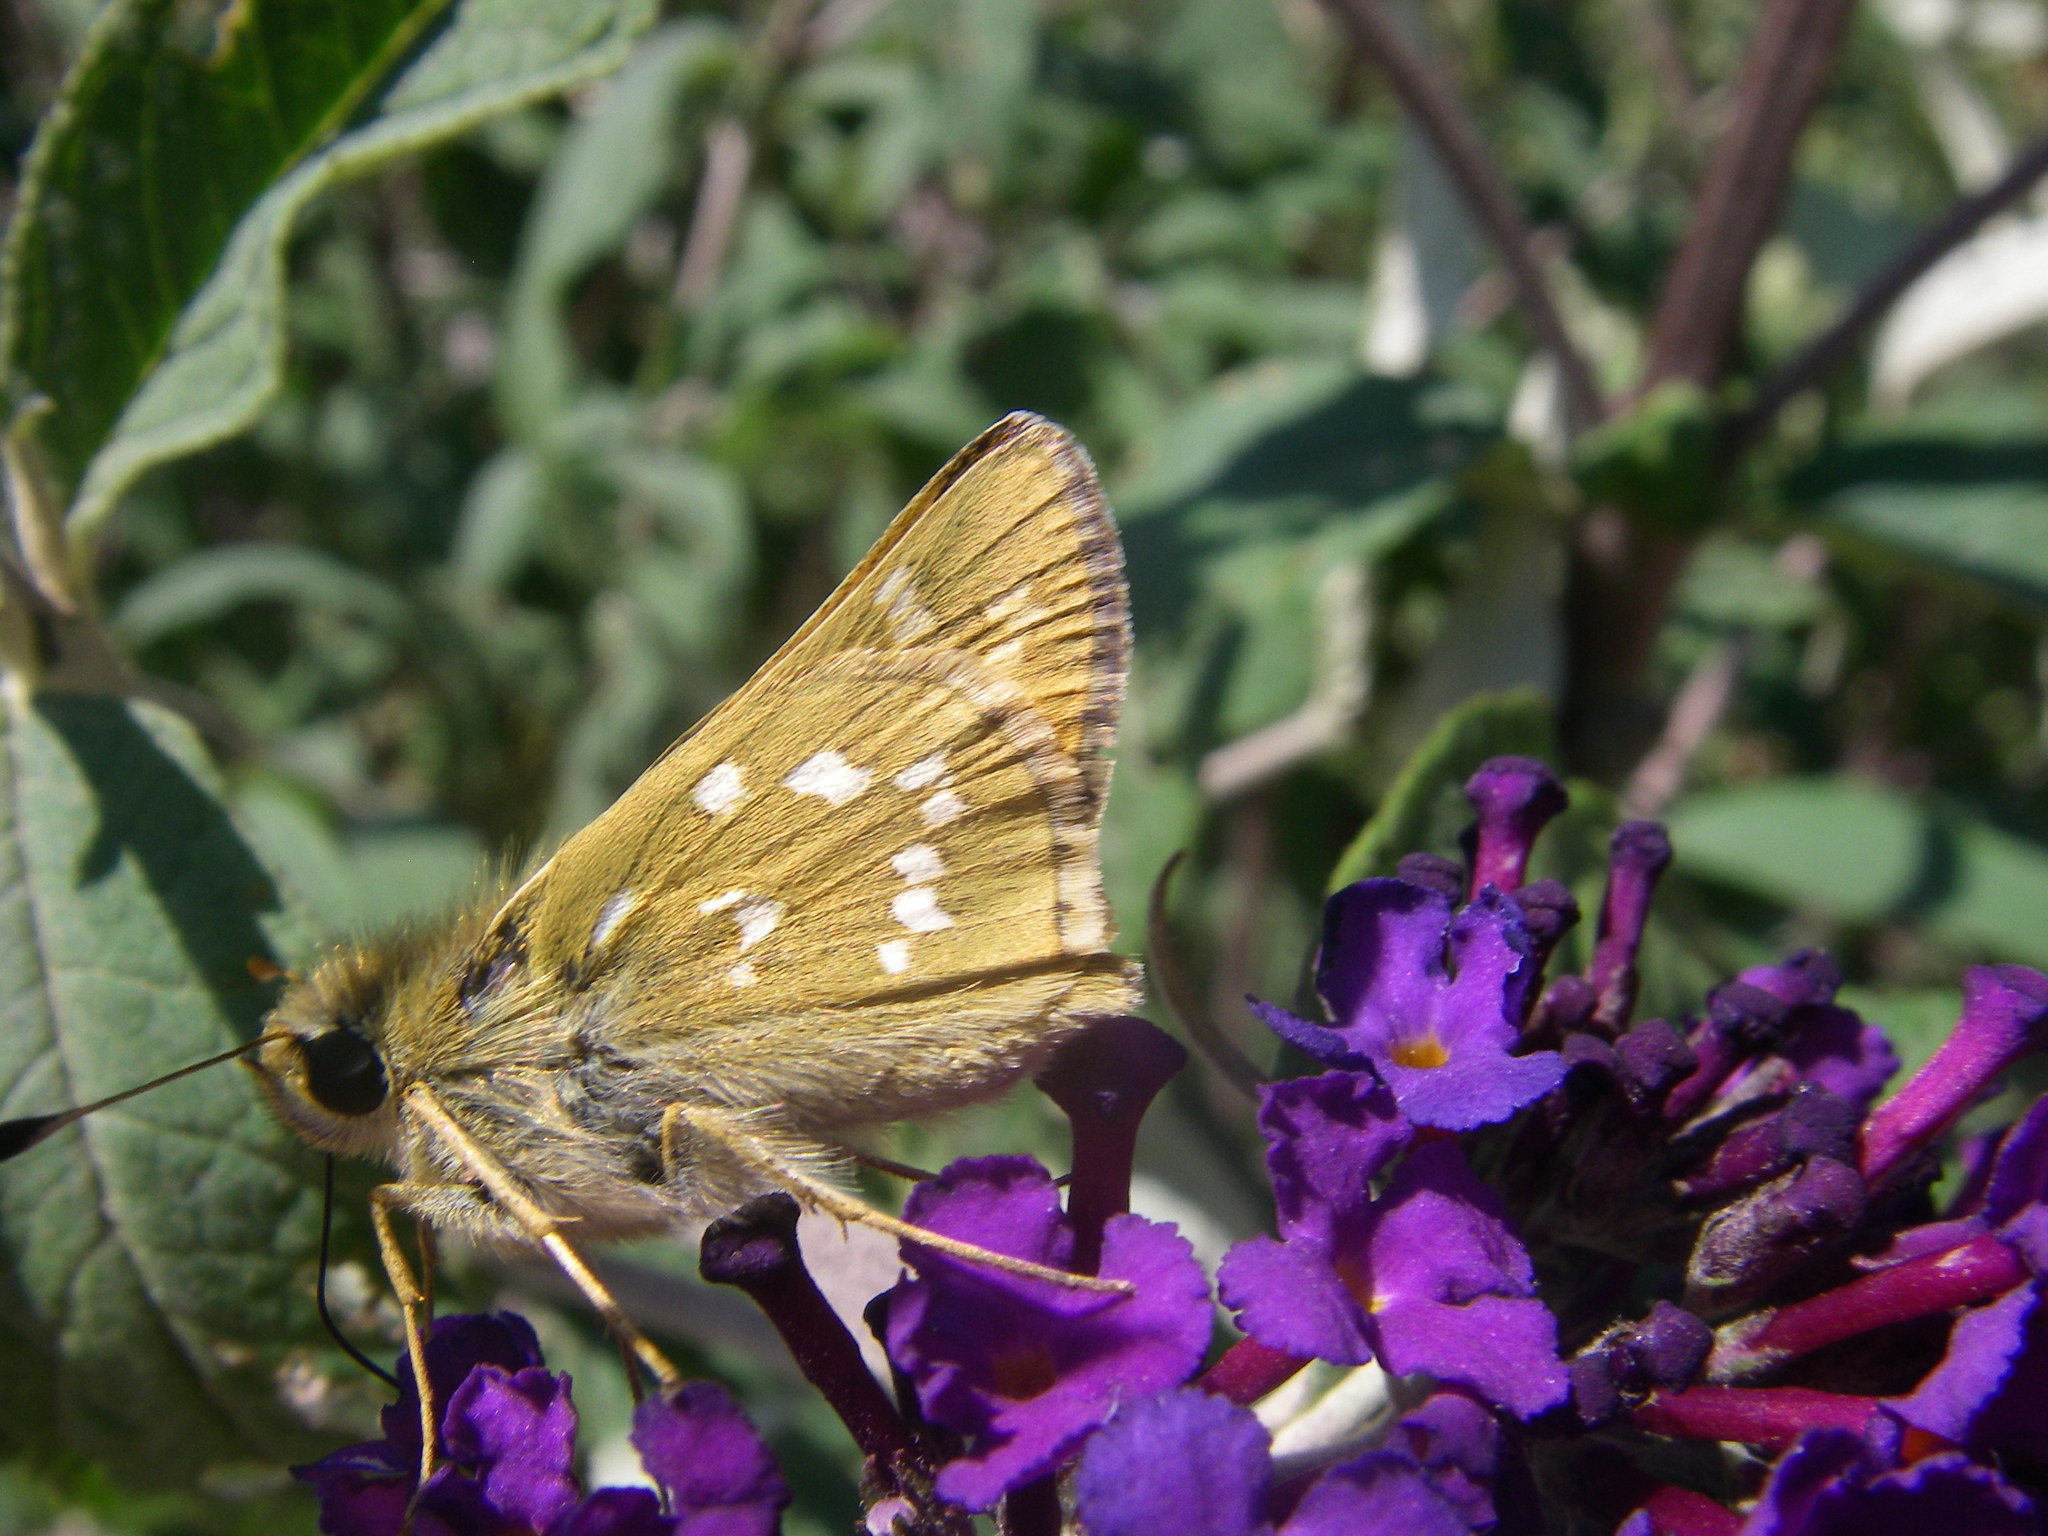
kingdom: Animalia
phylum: Arthropoda
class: Insecta
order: Lepidoptera
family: Hesperiidae
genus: Hesperia
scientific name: Hesperia comma
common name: Common branded skipper
